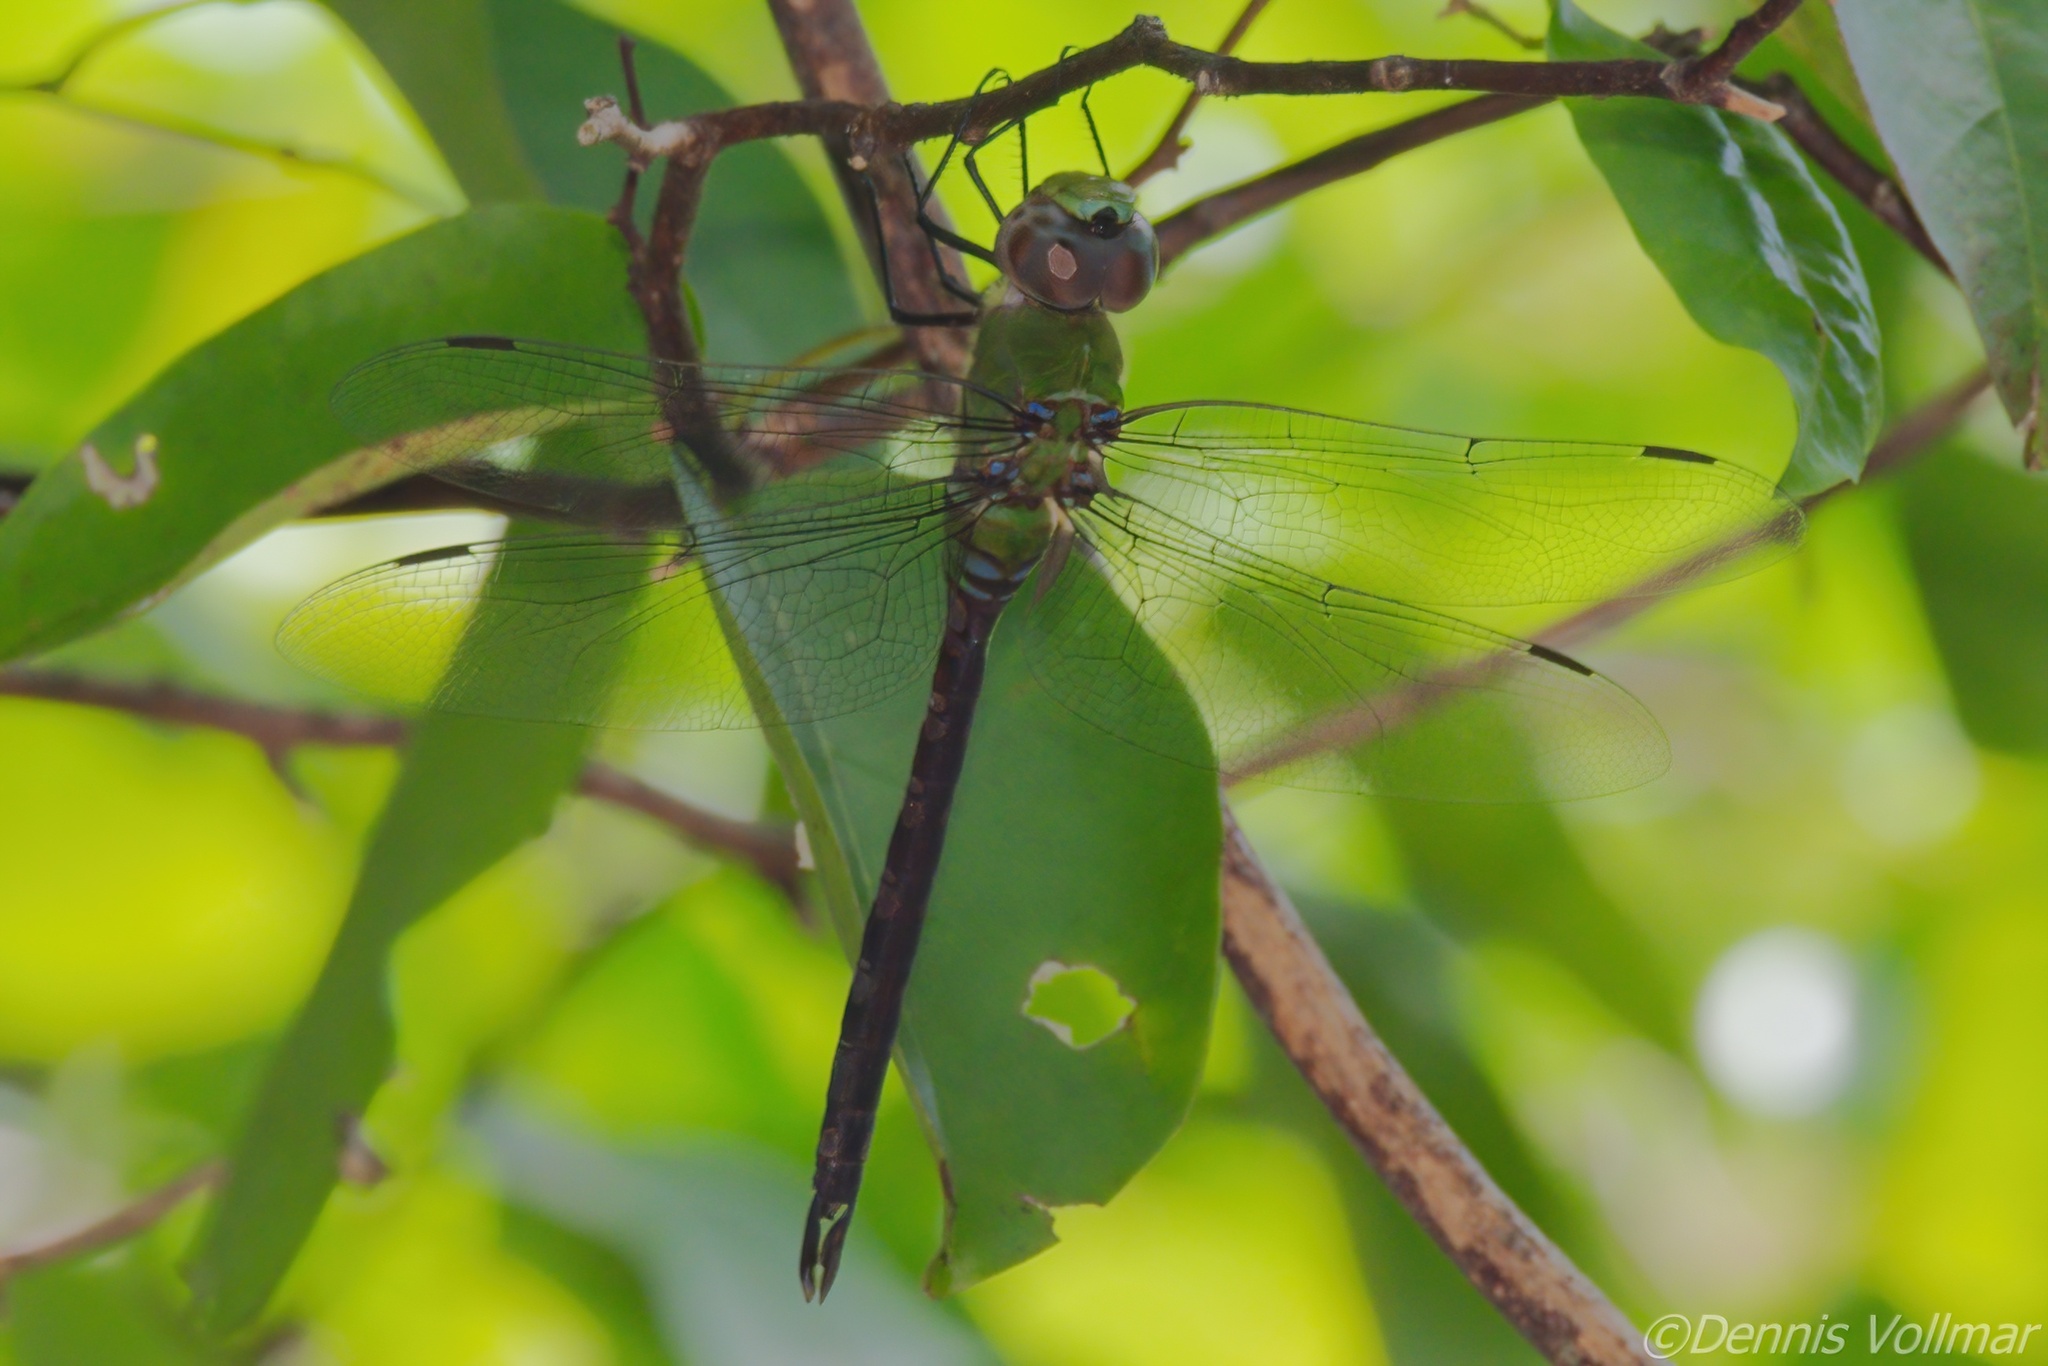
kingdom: Animalia
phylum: Arthropoda
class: Insecta
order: Odonata
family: Aeshnidae
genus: Anax
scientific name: Anax amazili
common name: Amazon darner
